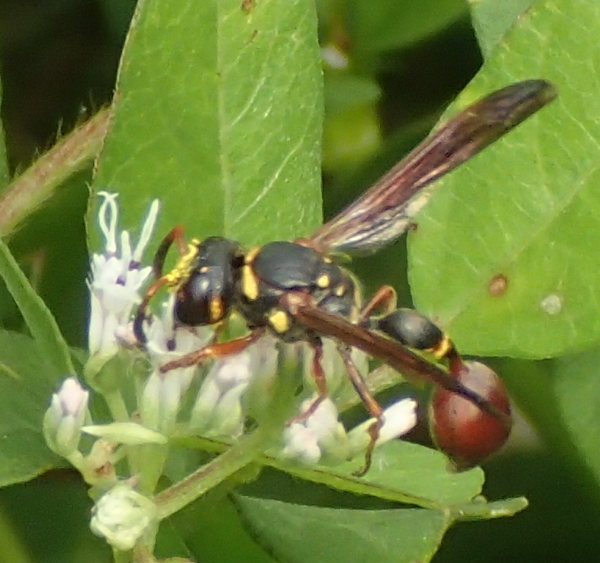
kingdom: Animalia
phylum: Arthropoda
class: Insecta
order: Hymenoptera
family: Eumenidae
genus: Zethus
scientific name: Zethus slossonae
